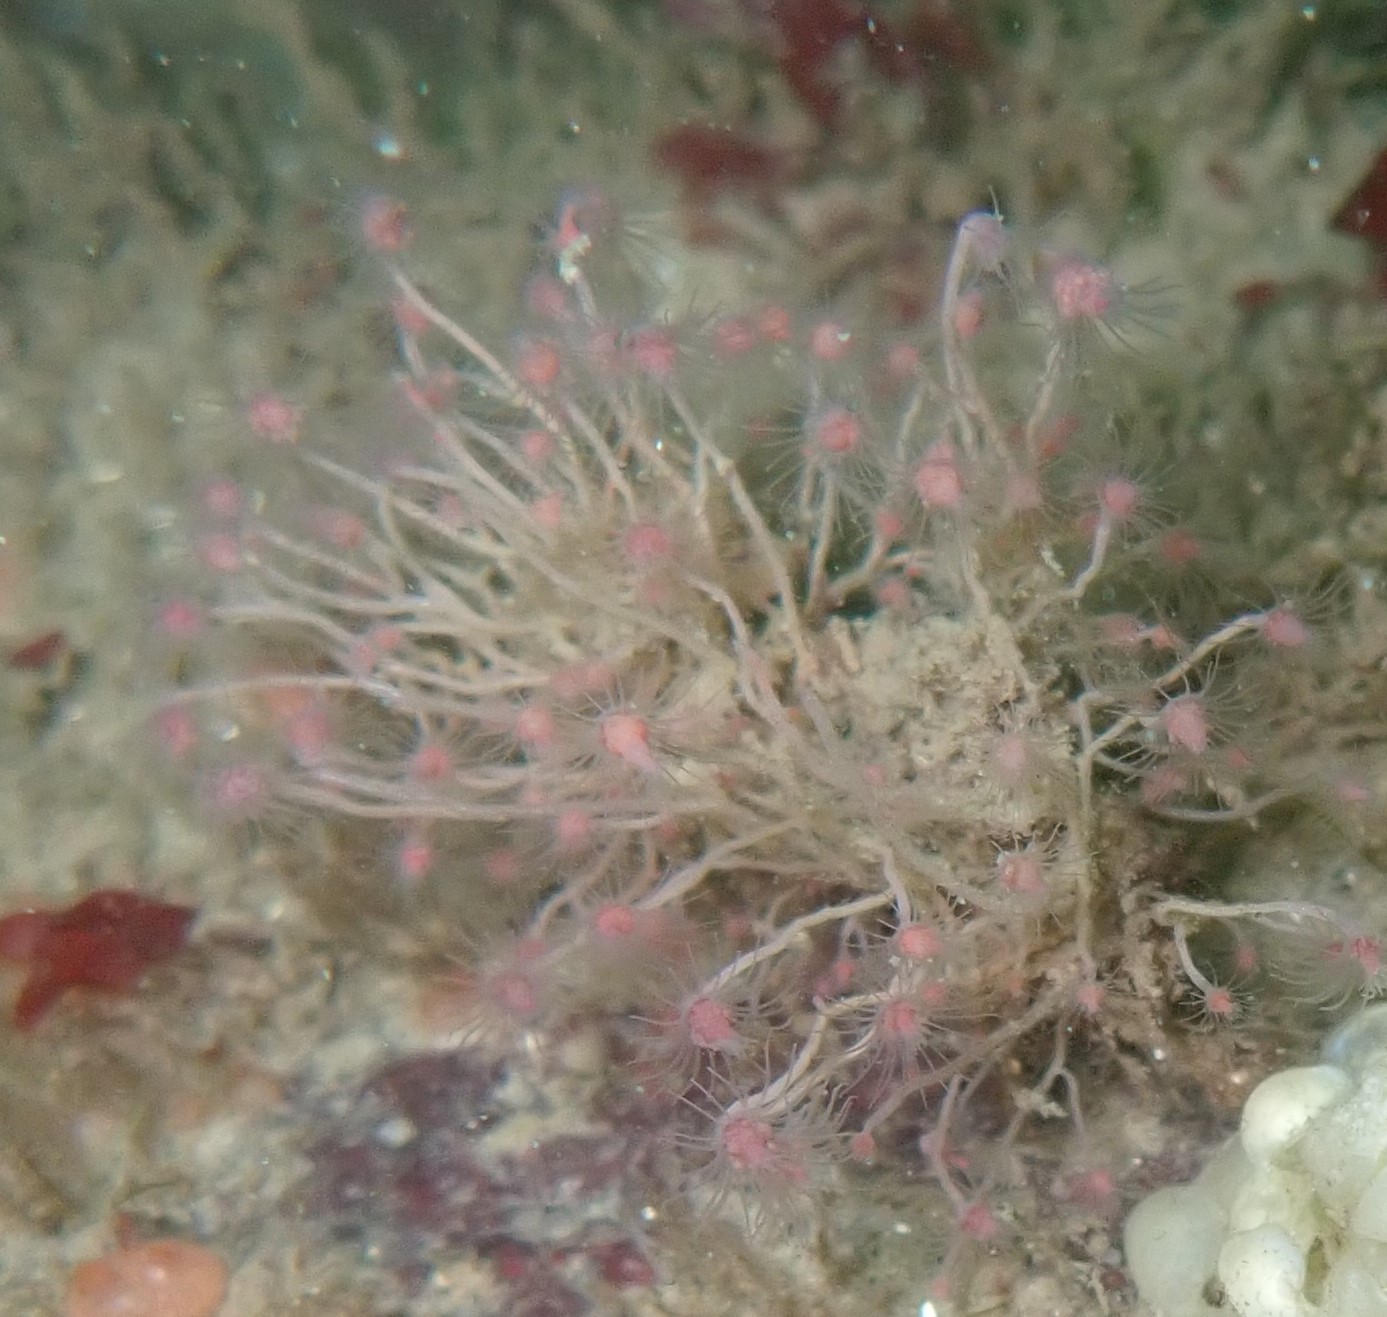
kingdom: Animalia
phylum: Cnidaria
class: Hydrozoa
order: Anthoathecata
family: Tubulariidae
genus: Ectopleura
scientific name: Ectopleura larynx
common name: Ringed tubularia
